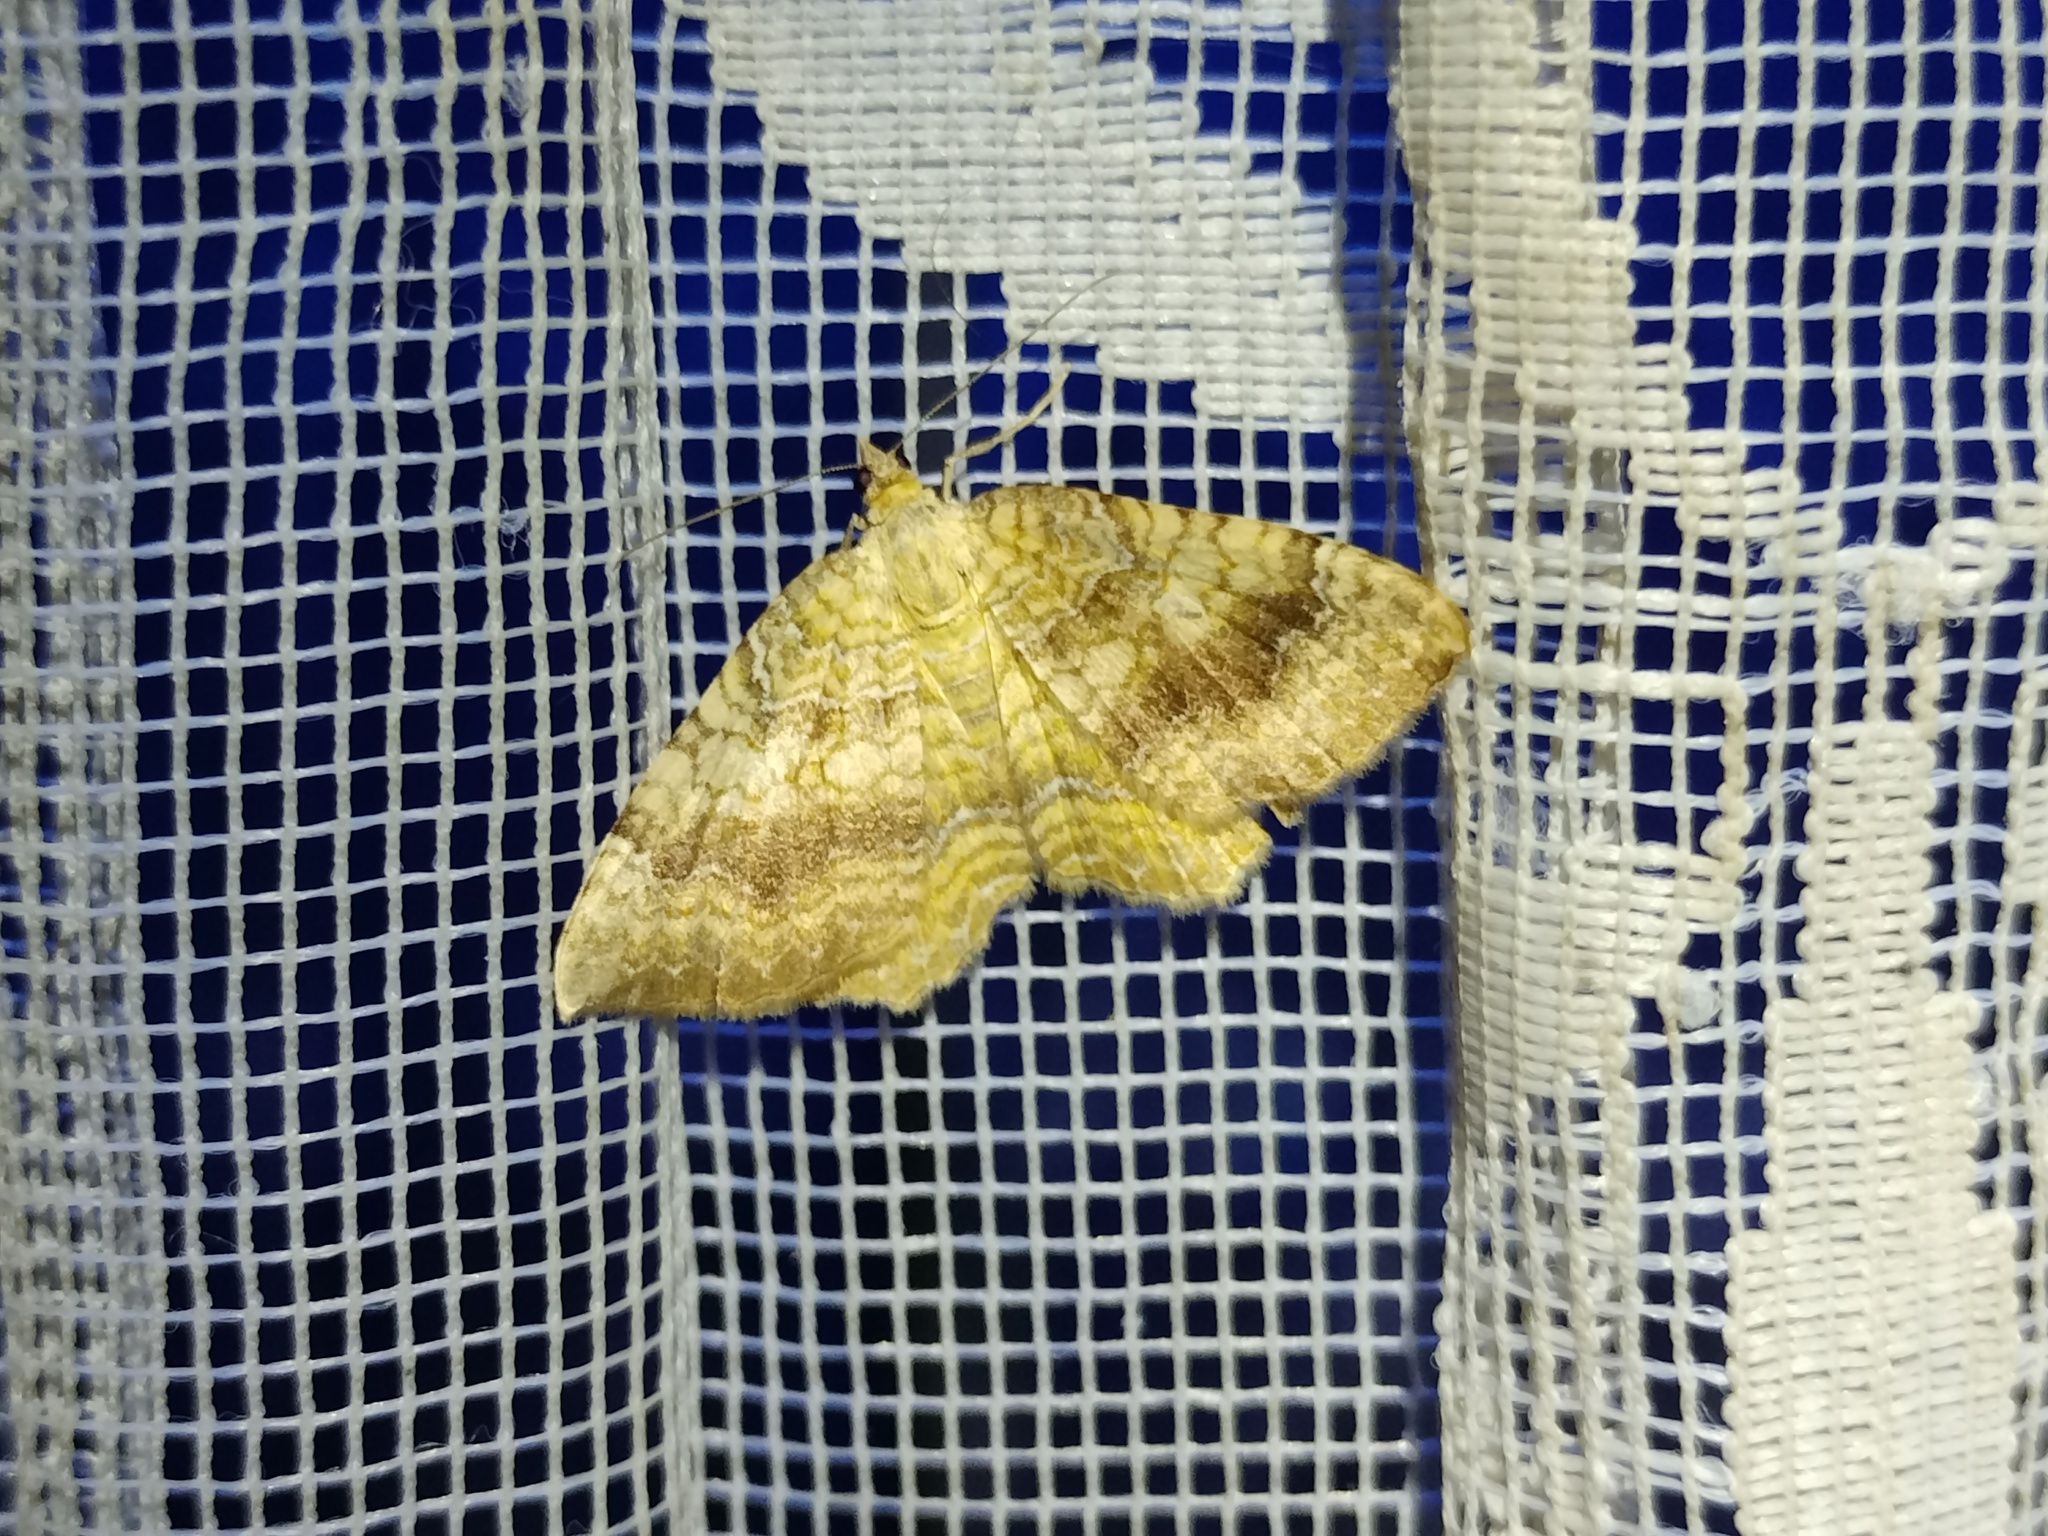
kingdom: Animalia
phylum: Arthropoda
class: Insecta
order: Lepidoptera
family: Geometridae
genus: Camptogramma
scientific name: Camptogramma bilineata
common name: Yellow shell
